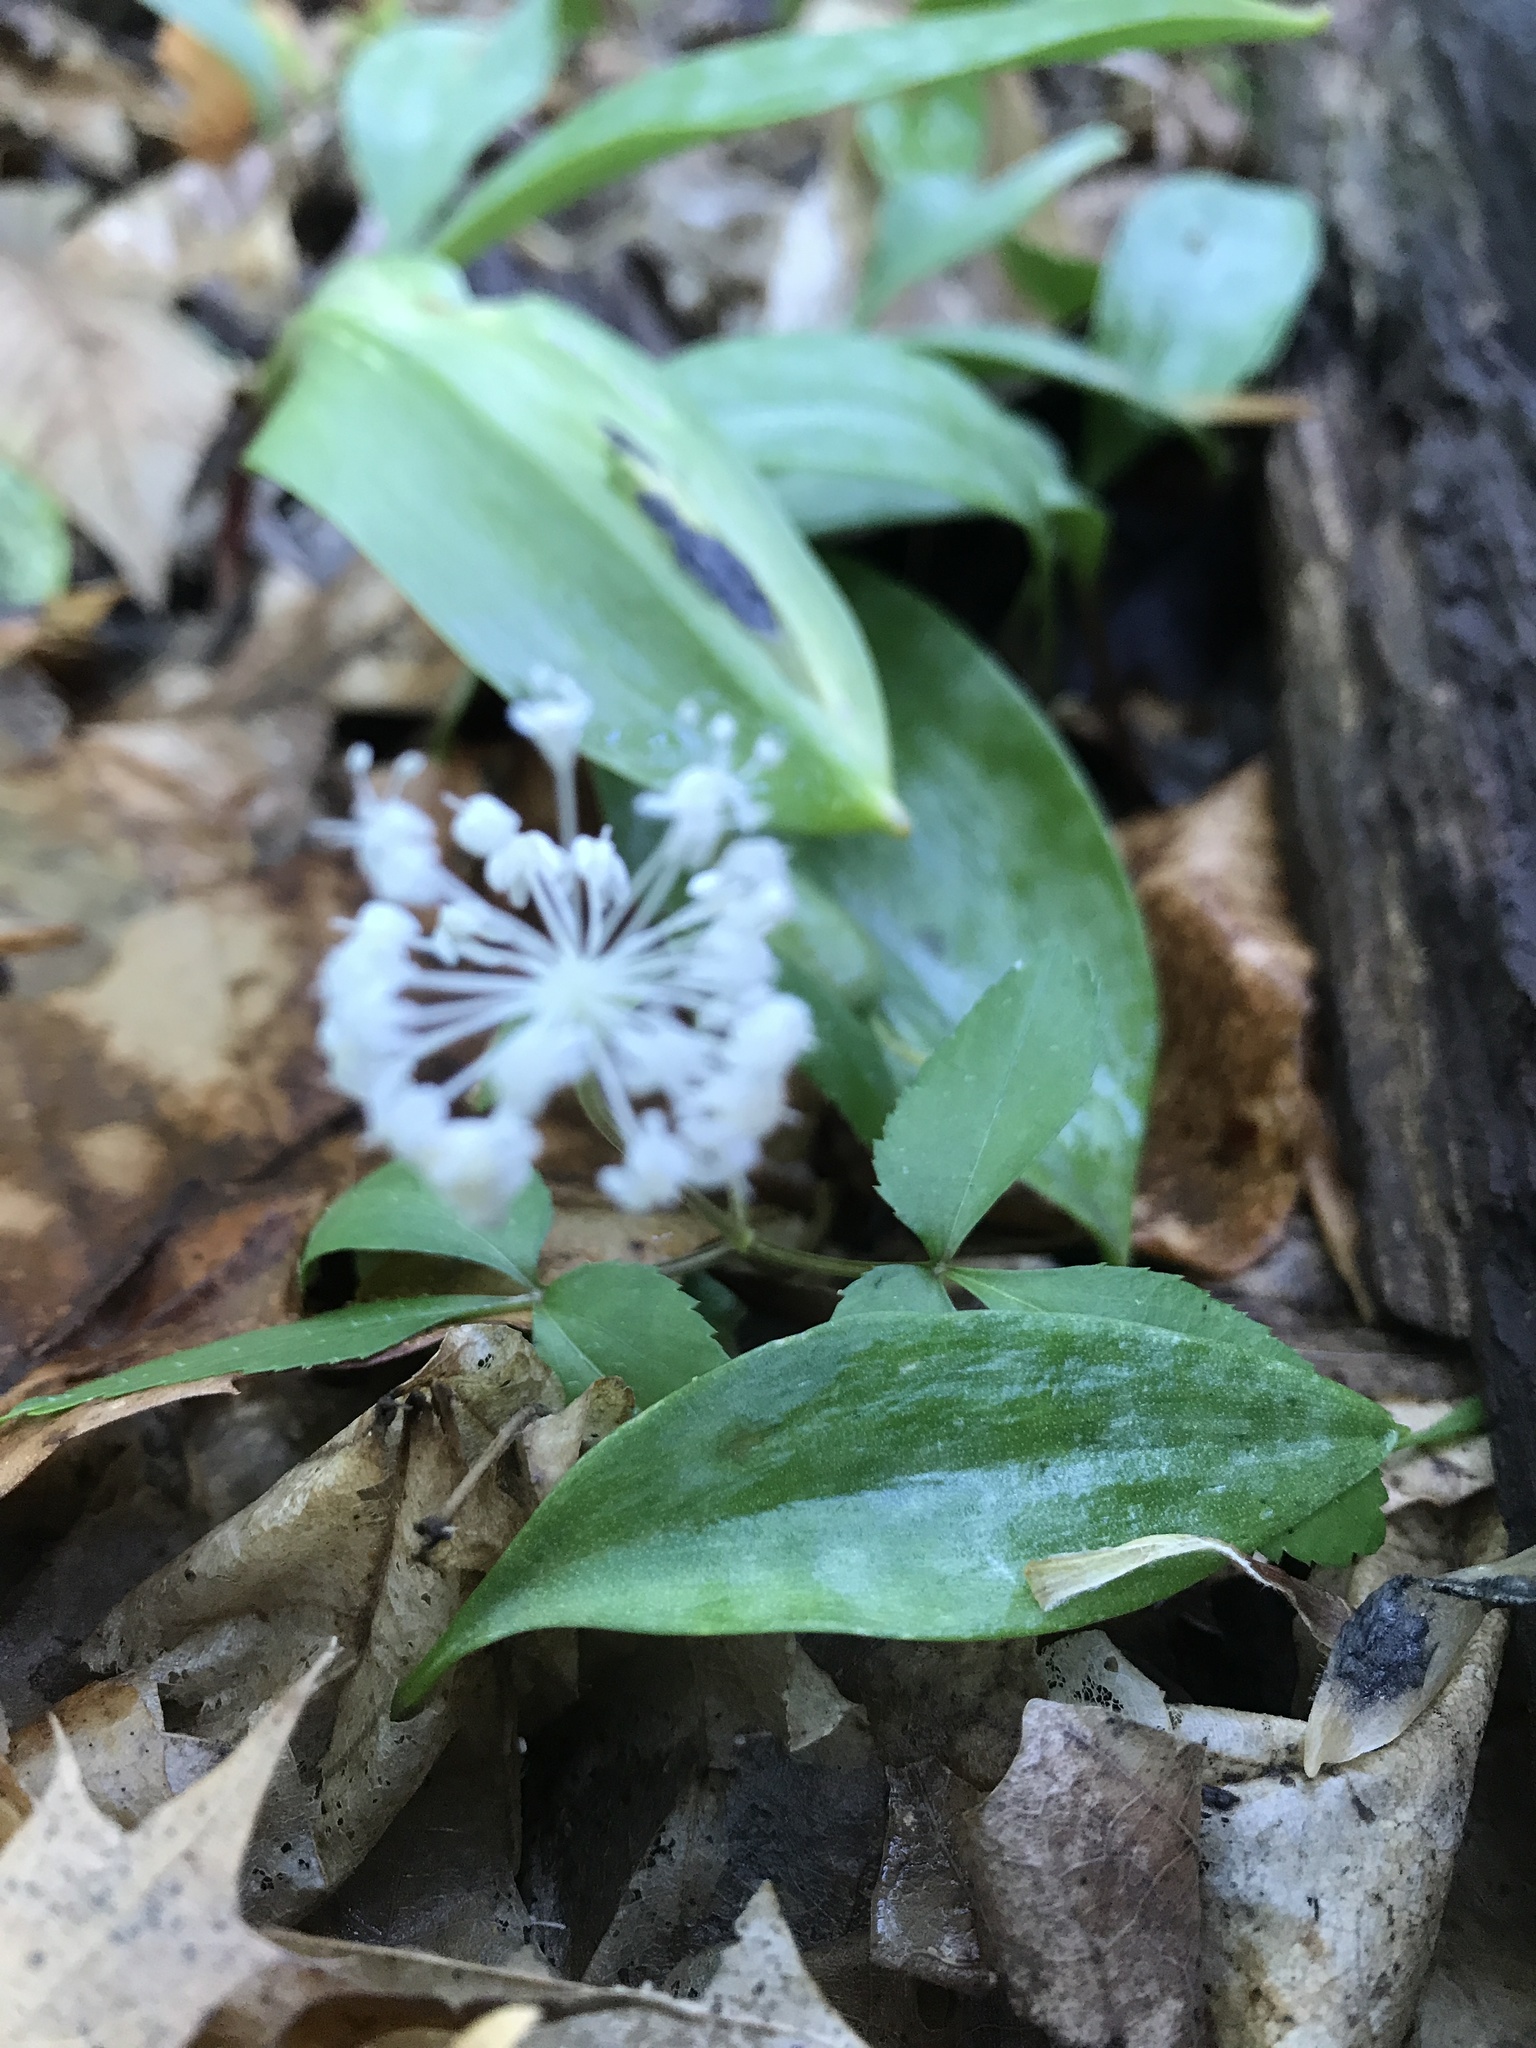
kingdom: Plantae
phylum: Tracheophyta
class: Magnoliopsida
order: Apiales
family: Araliaceae
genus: Panax
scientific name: Panax trifolius
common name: Dwarf ginseng
